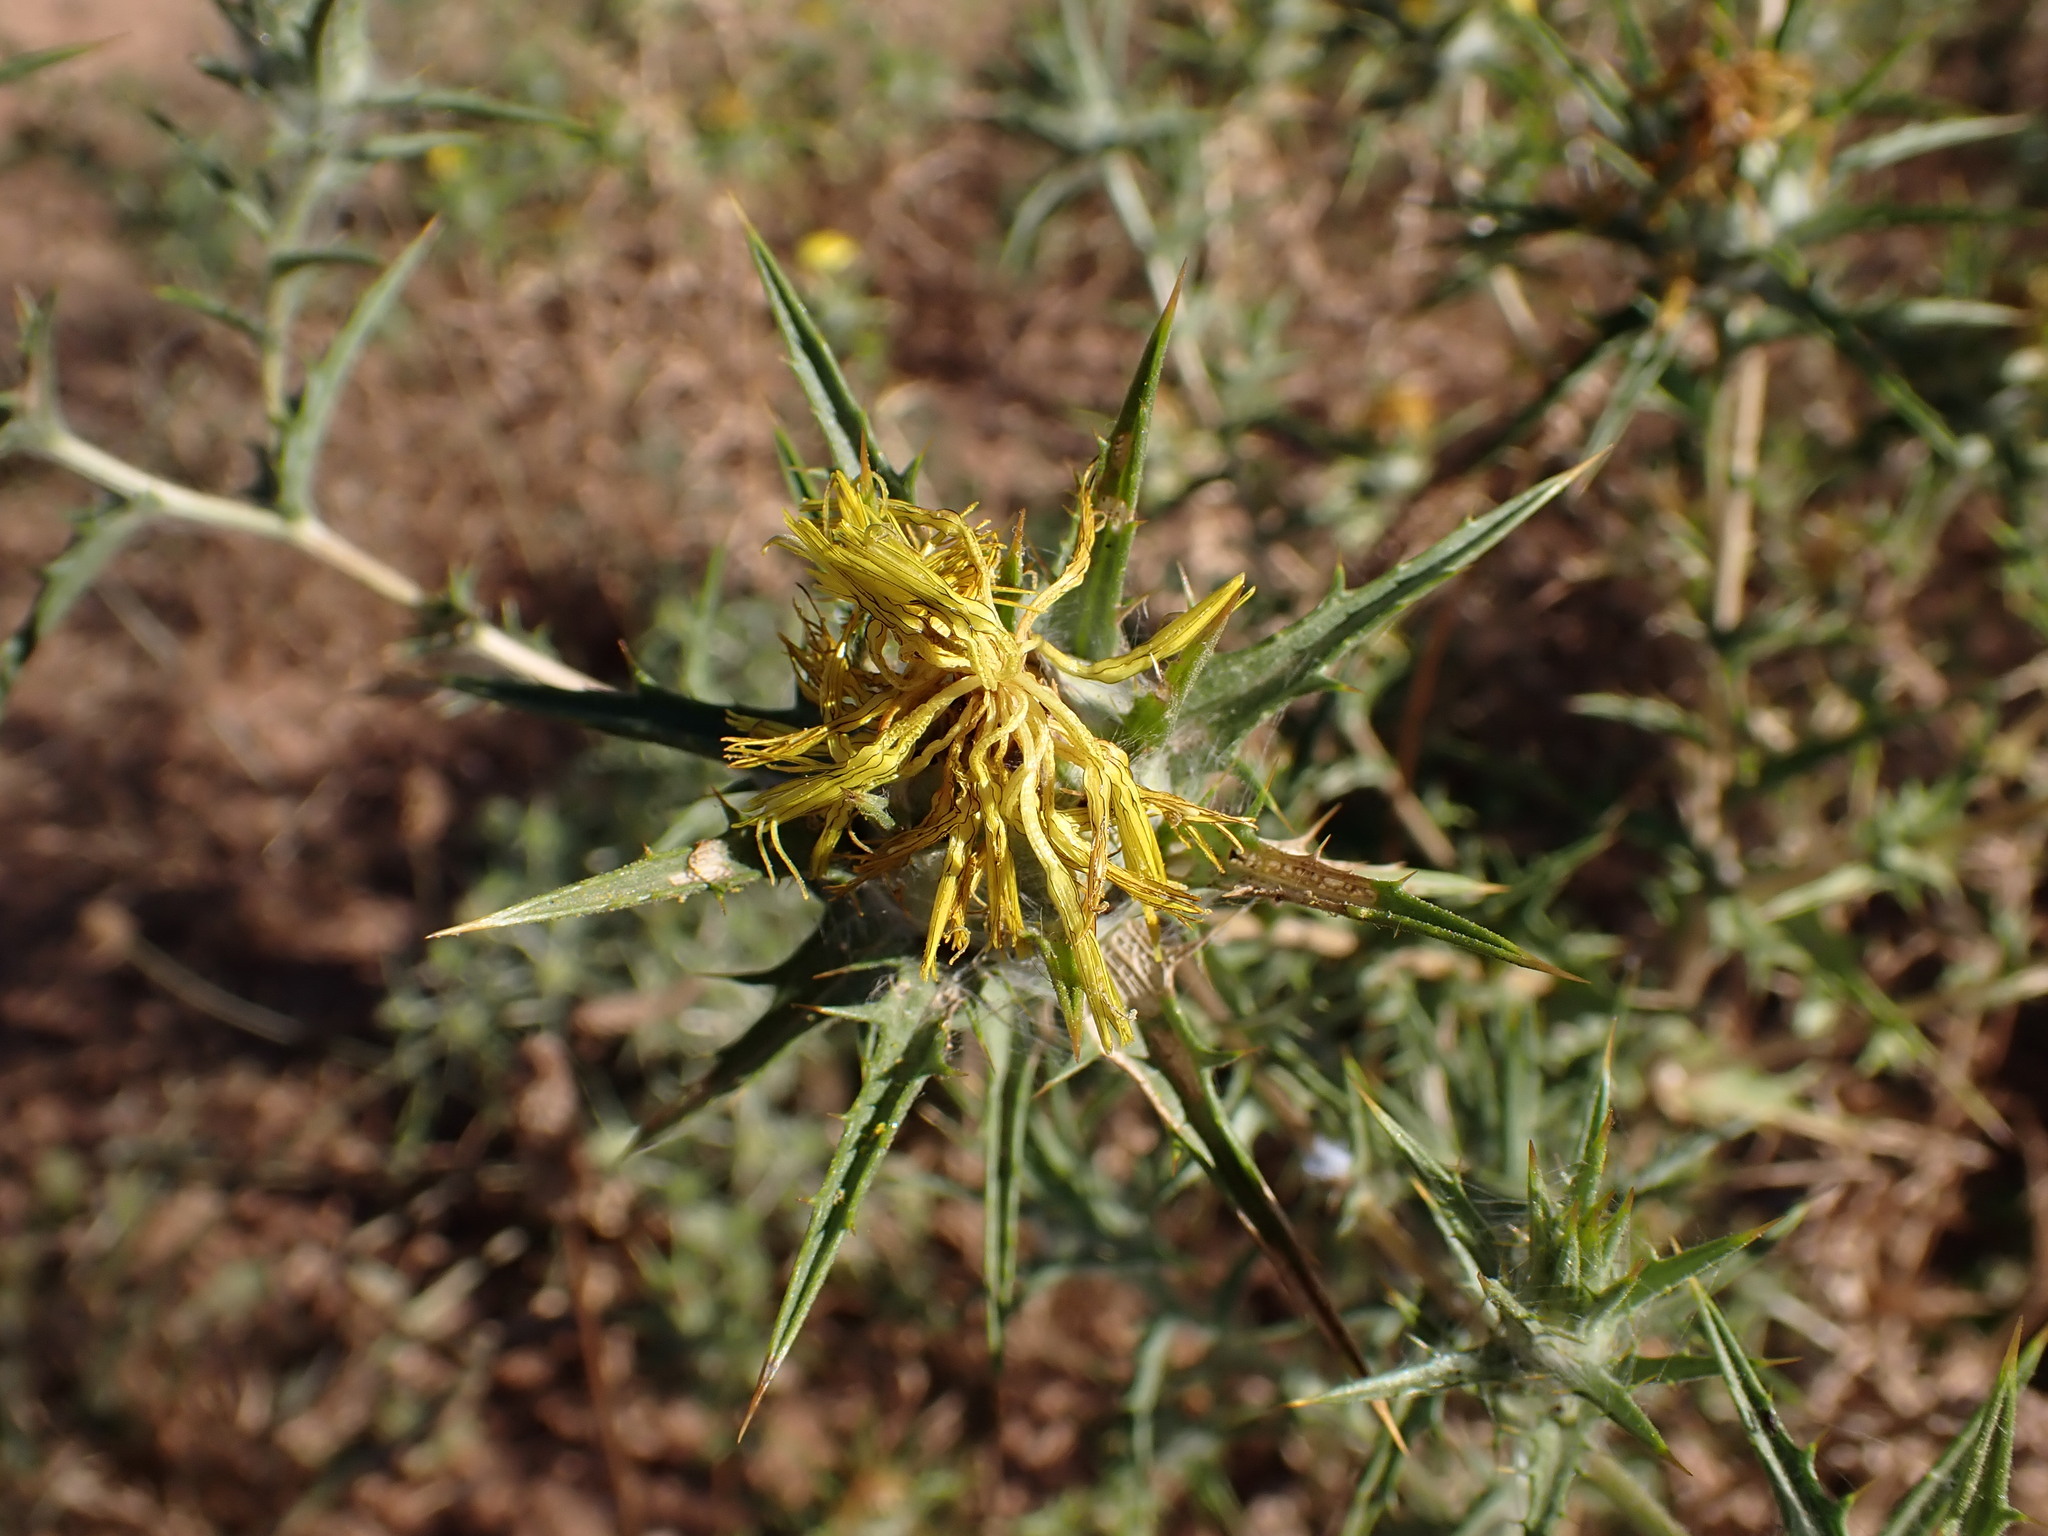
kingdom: Plantae
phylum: Tracheophyta
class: Magnoliopsida
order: Asterales
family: Asteraceae
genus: Carthamus
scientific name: Carthamus lanatus
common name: Downy safflower
